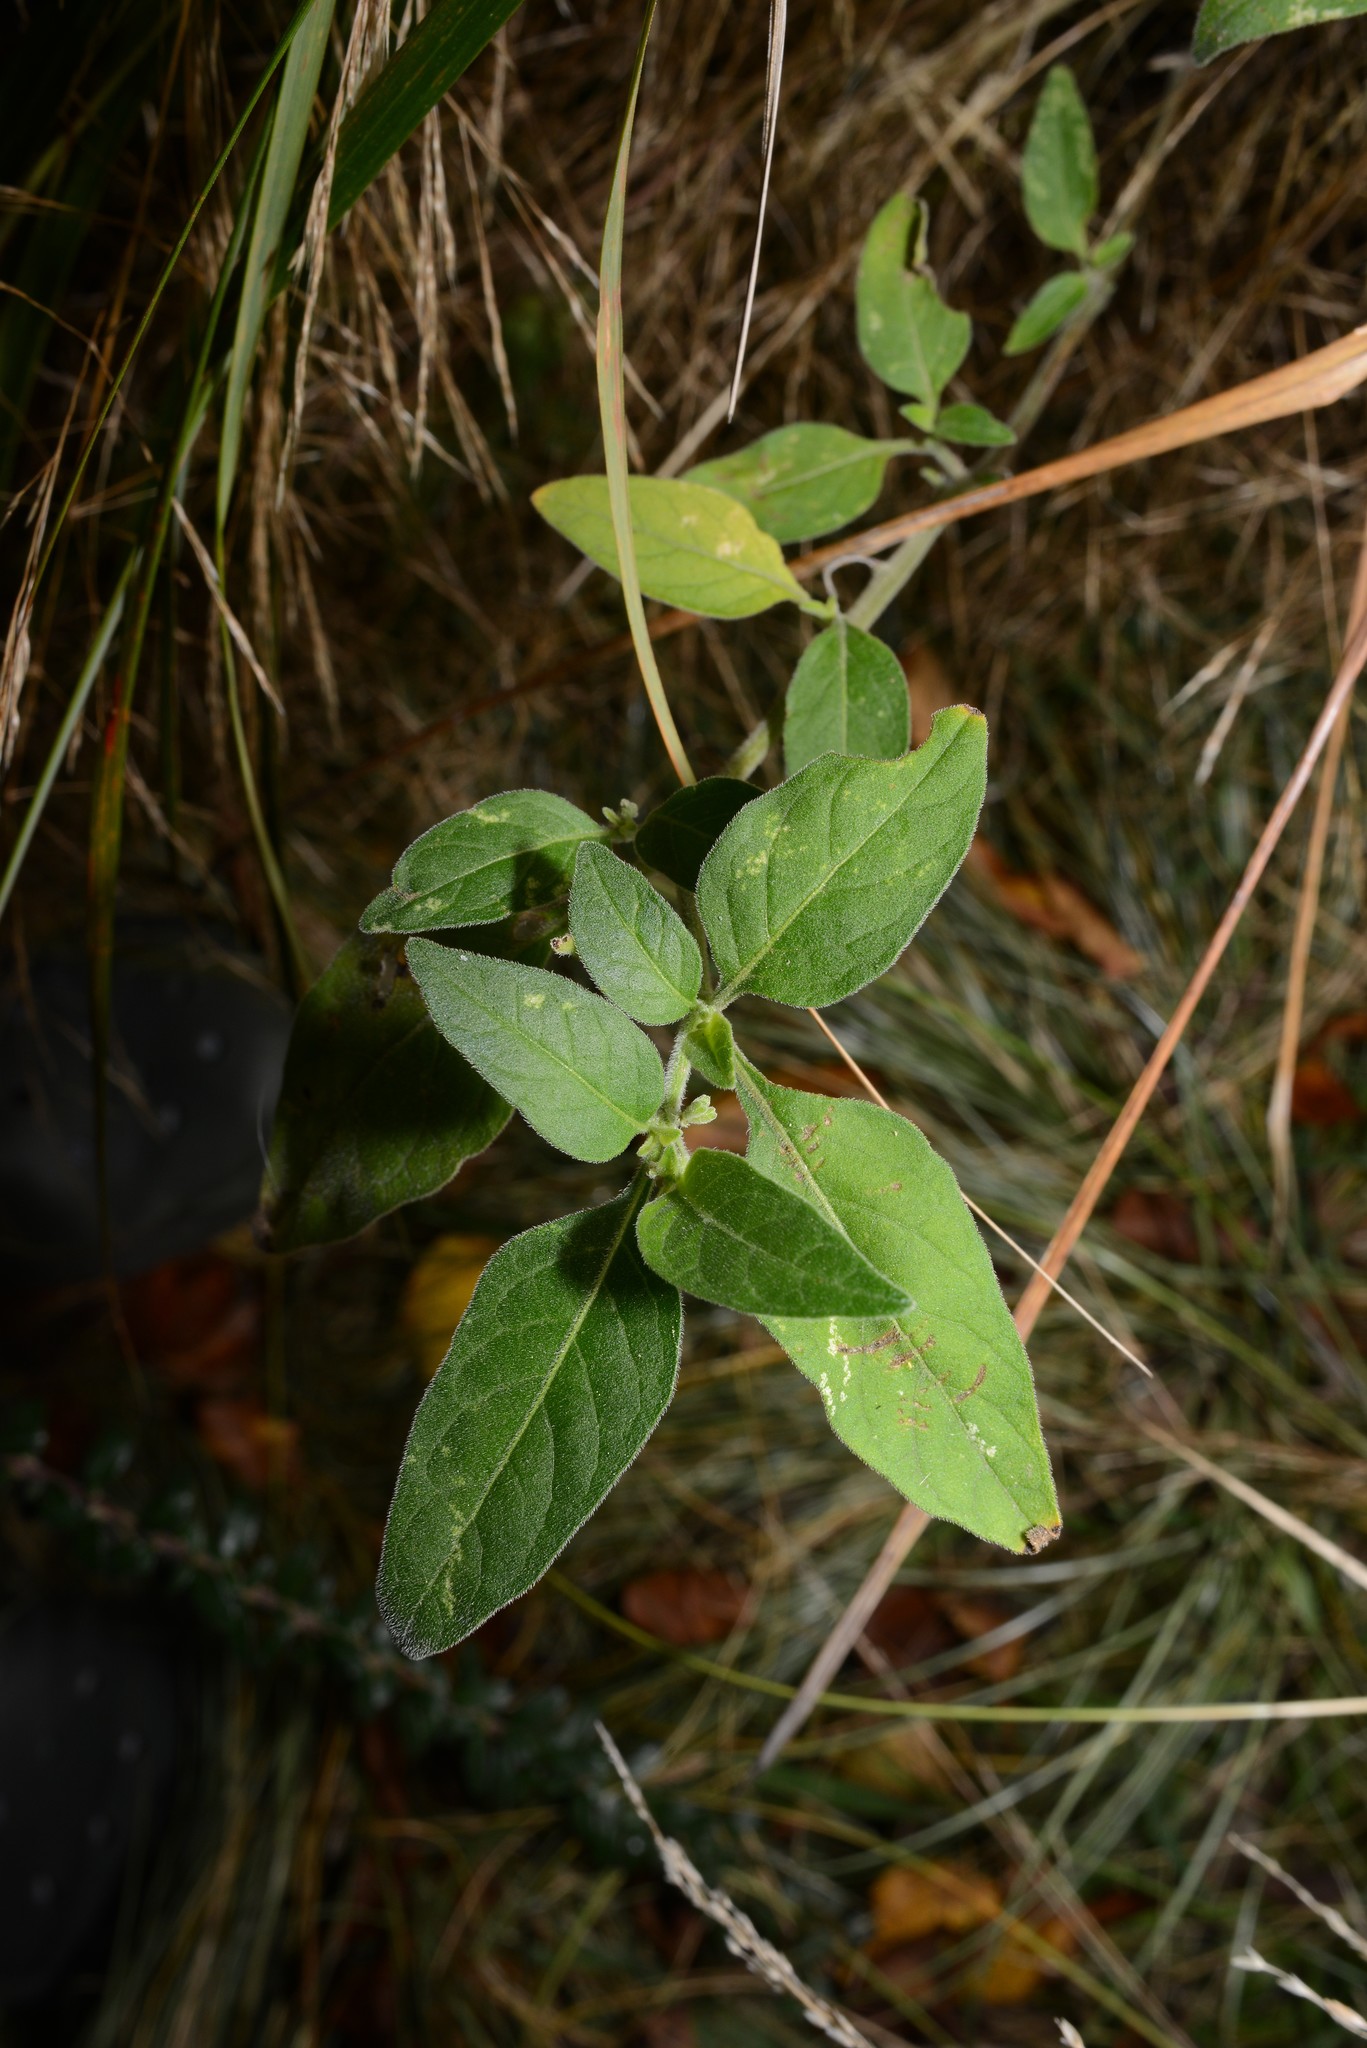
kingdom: Plantae
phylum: Tracheophyta
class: Magnoliopsida
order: Solanales
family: Solanaceae
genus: Solanum
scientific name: Solanum chenopodioides
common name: Tall nightshade
